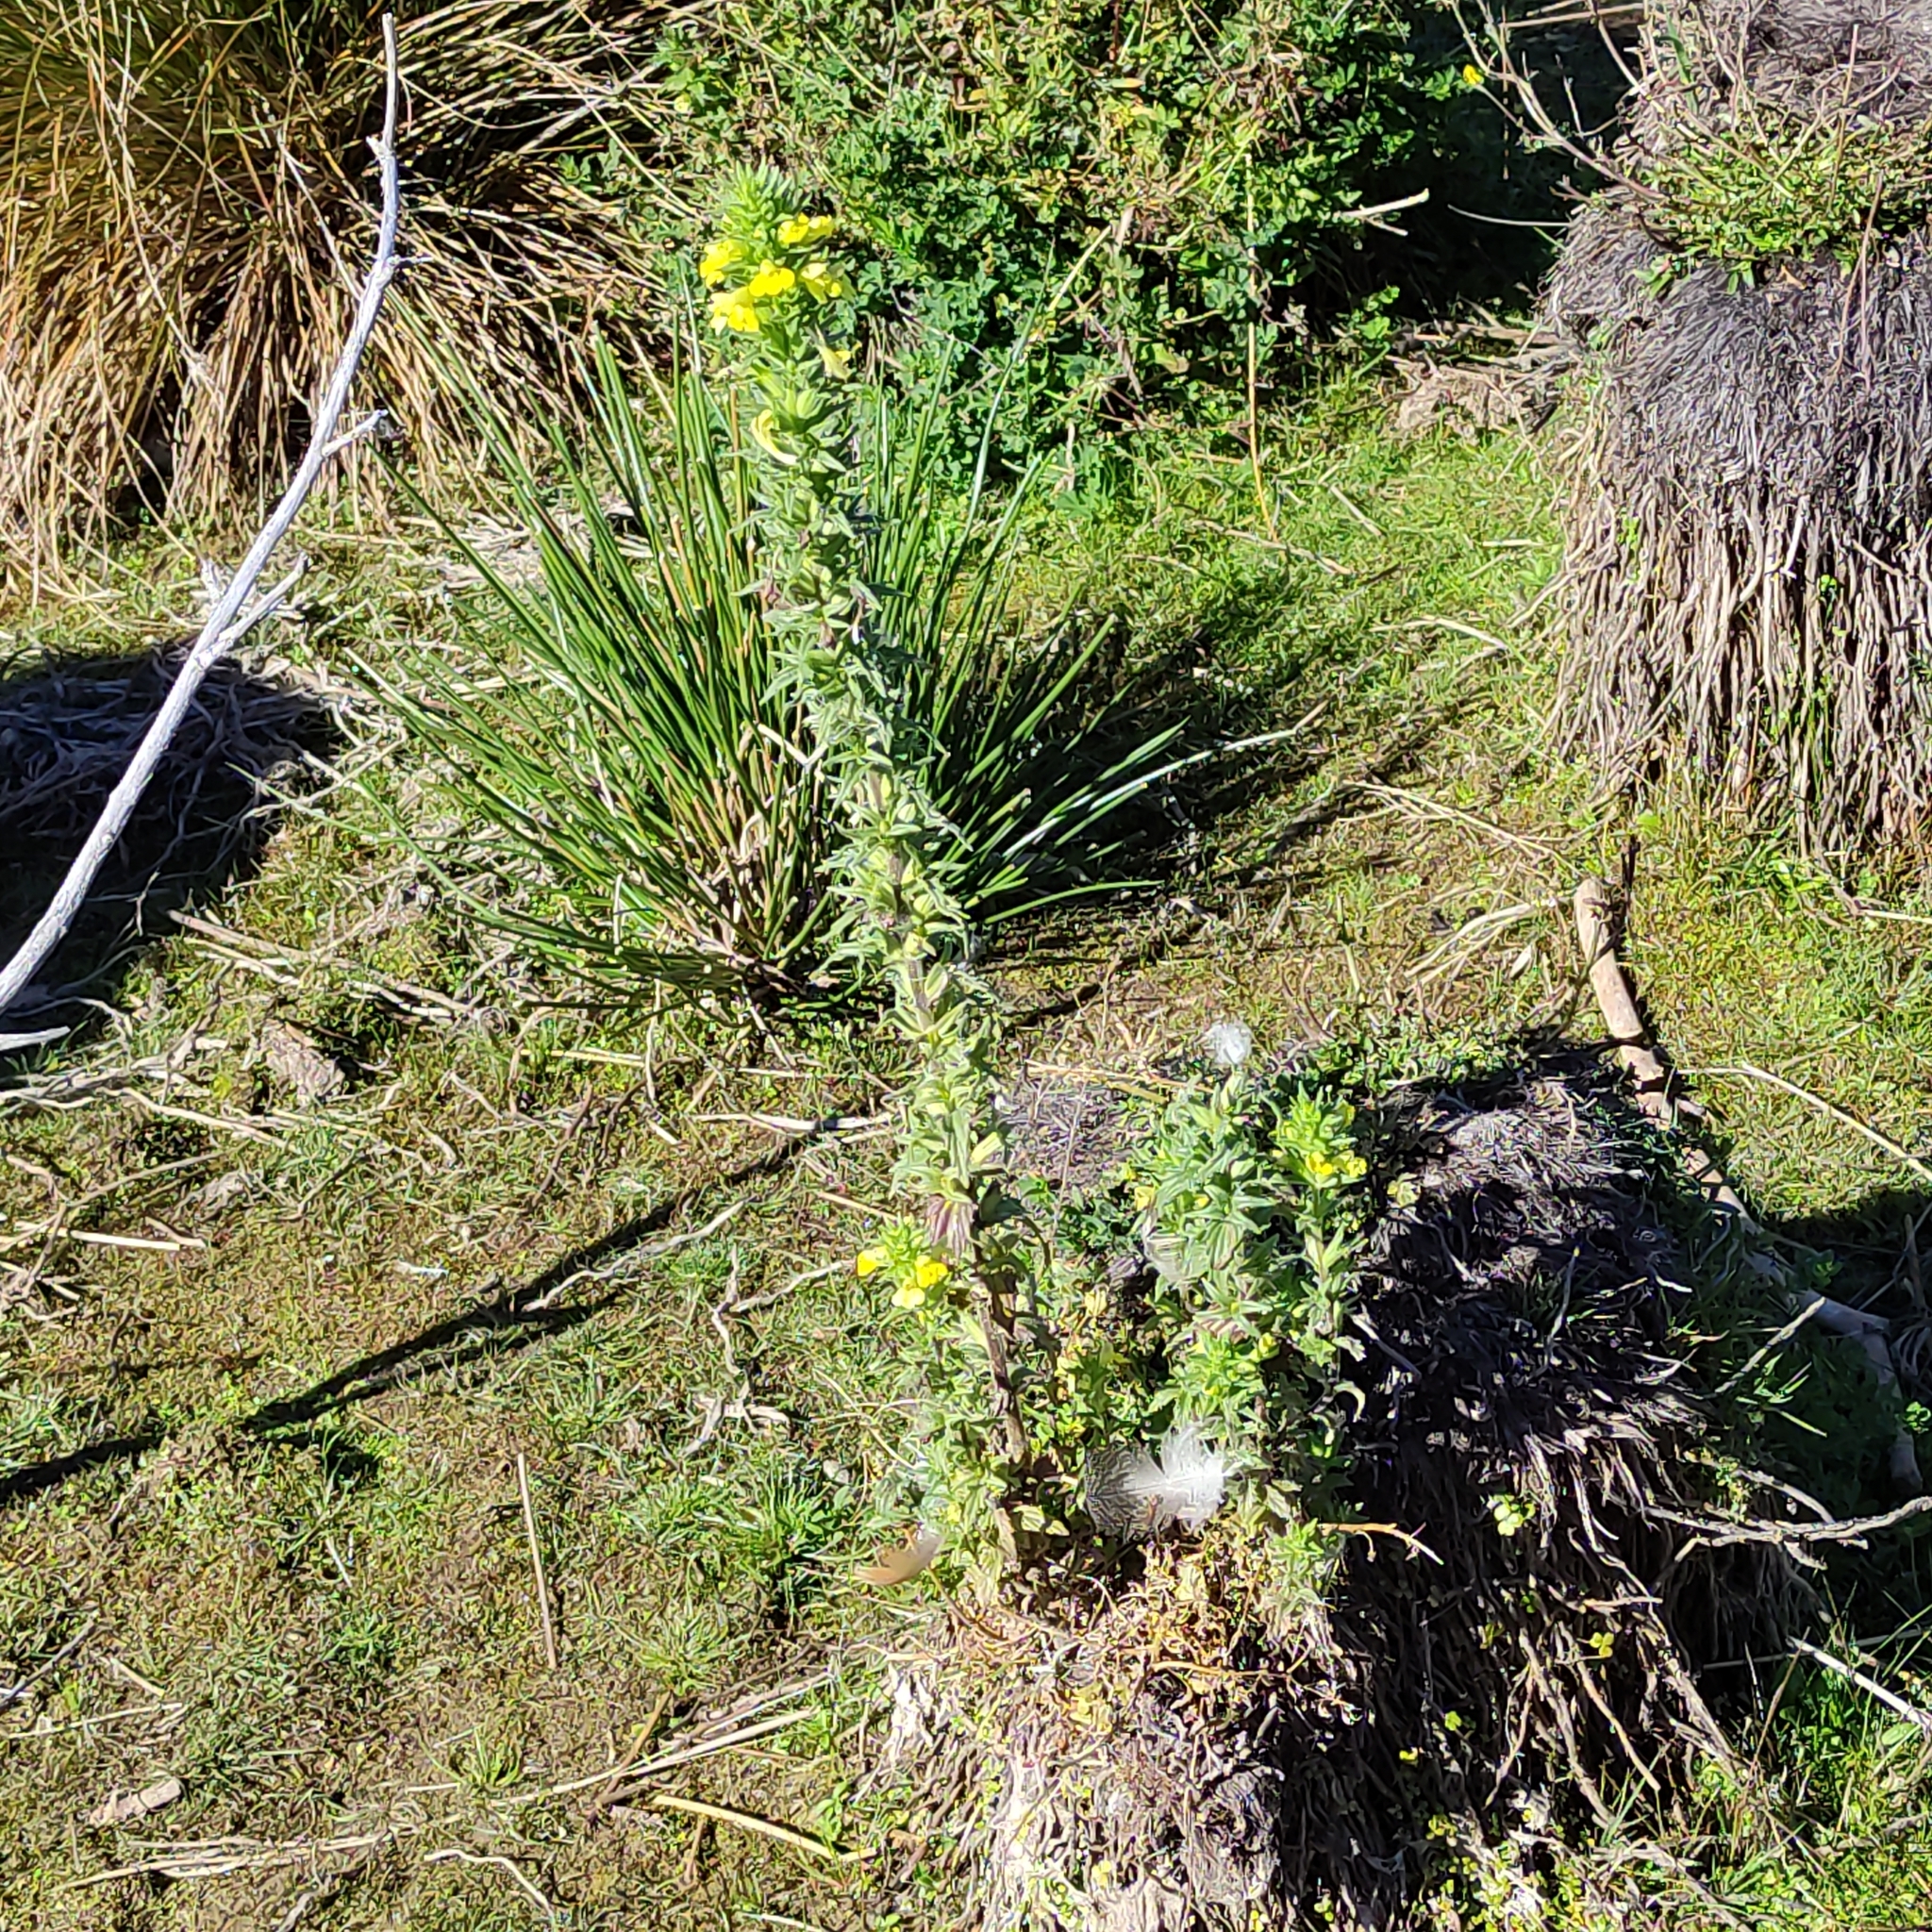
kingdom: Plantae
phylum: Tracheophyta
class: Magnoliopsida
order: Lamiales
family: Orobanchaceae
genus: Bellardia
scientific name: Bellardia viscosa
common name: Sticky parentucellia
